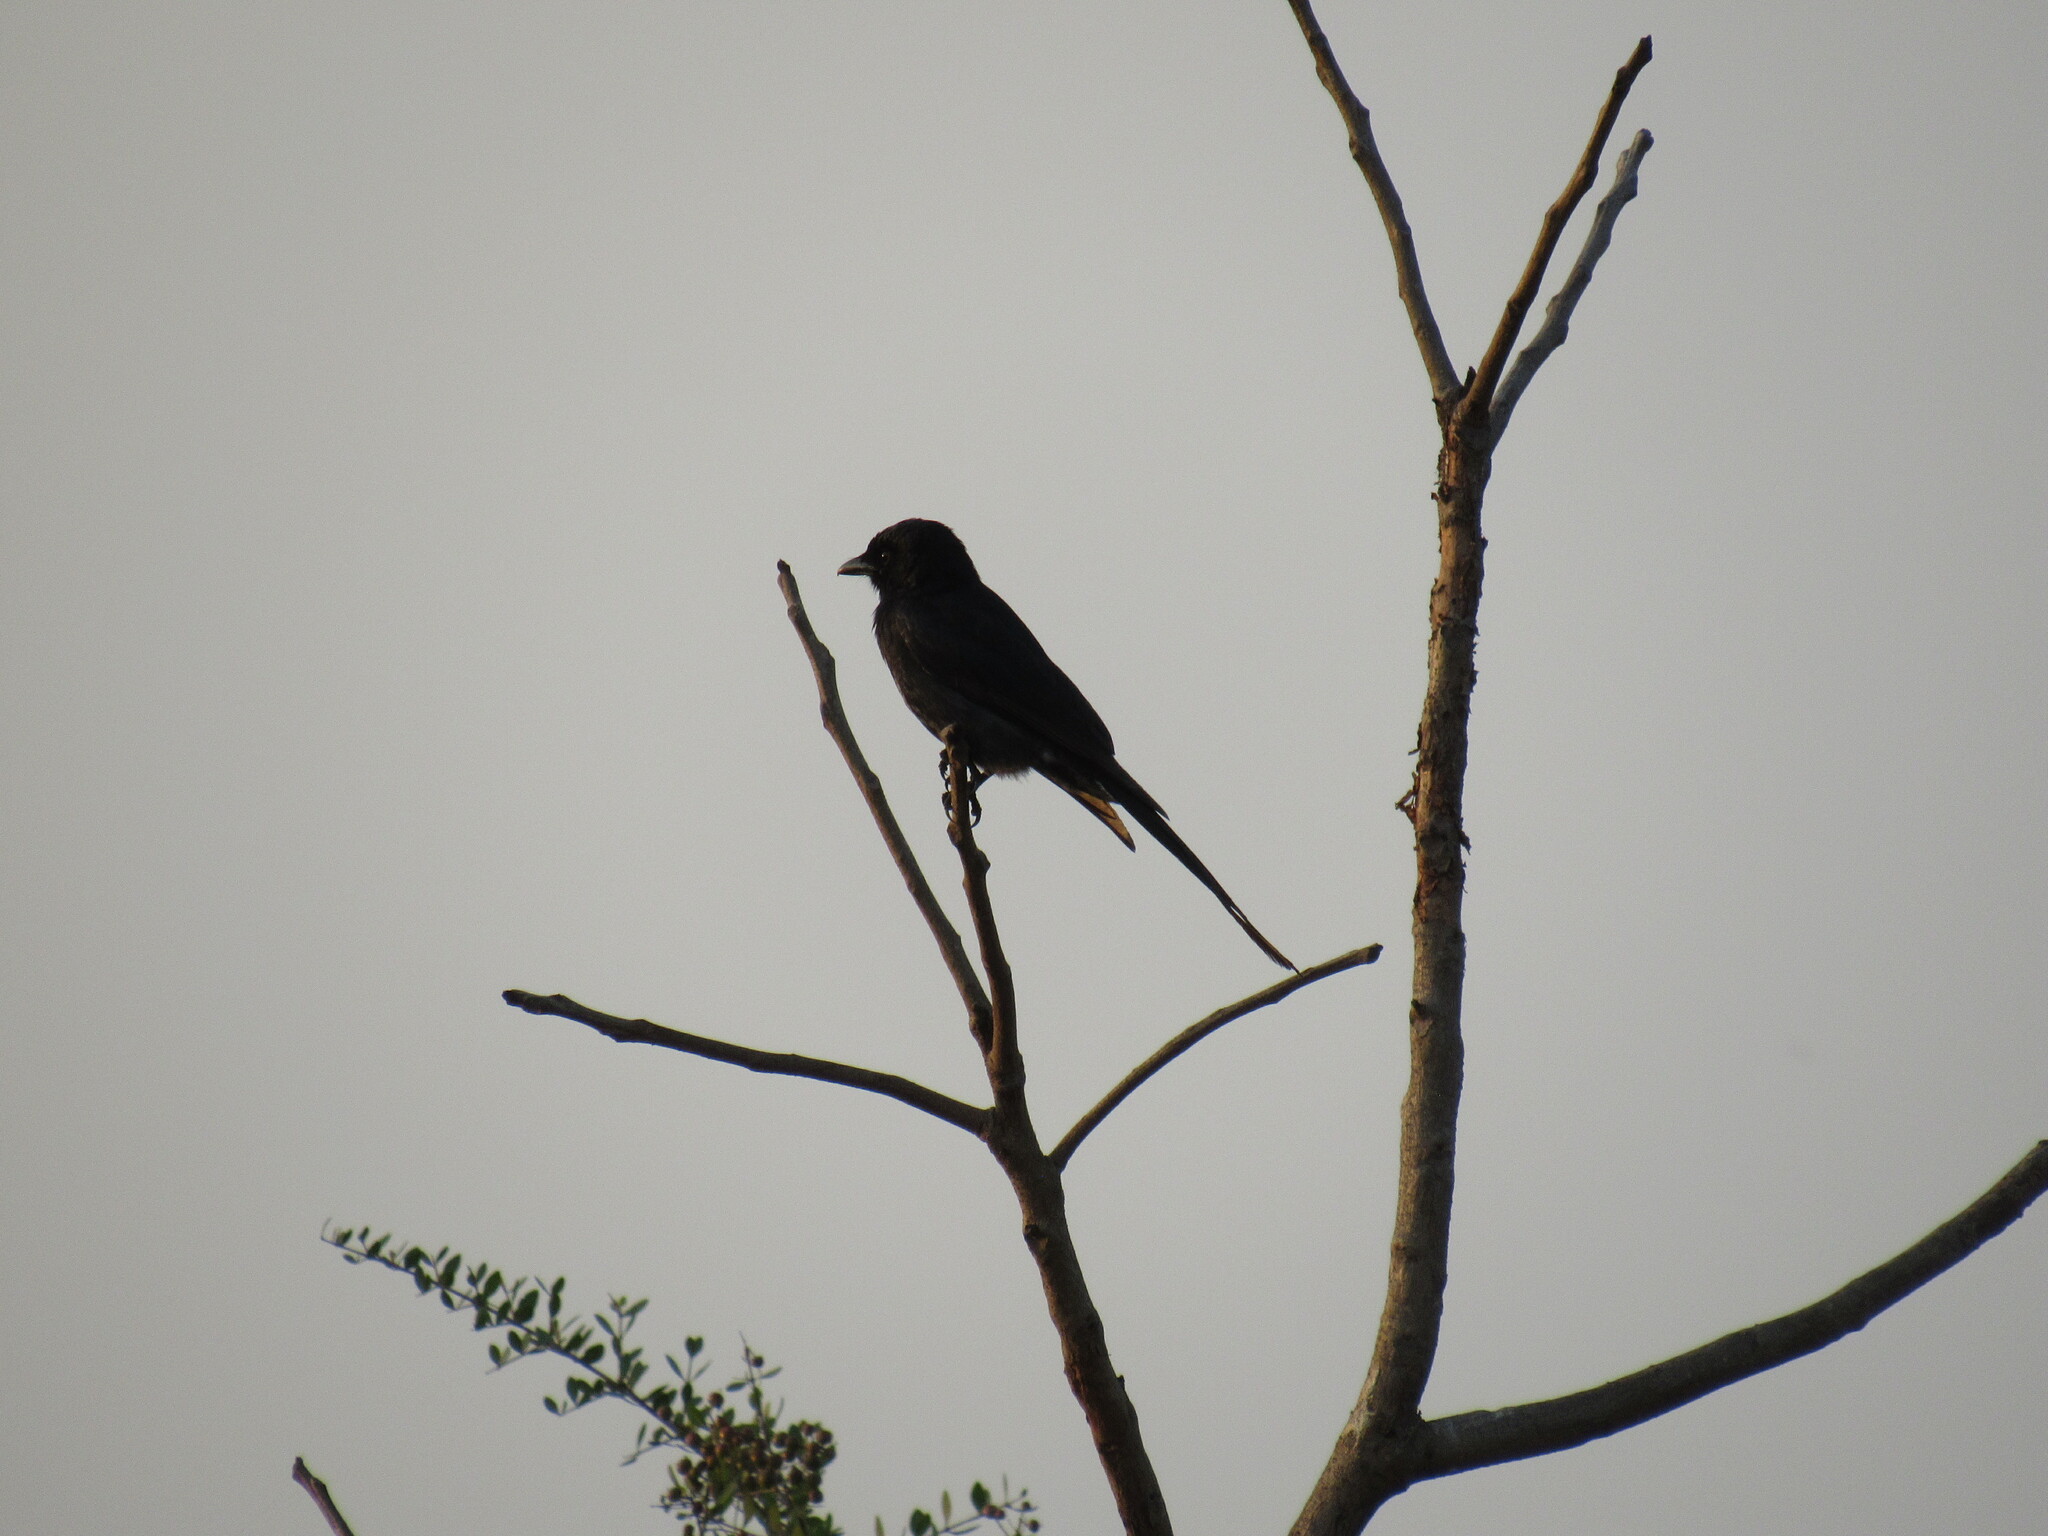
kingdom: Animalia
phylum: Chordata
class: Aves
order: Passeriformes
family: Dicruridae
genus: Dicrurus
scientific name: Dicrurus macrocercus
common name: Black drongo
